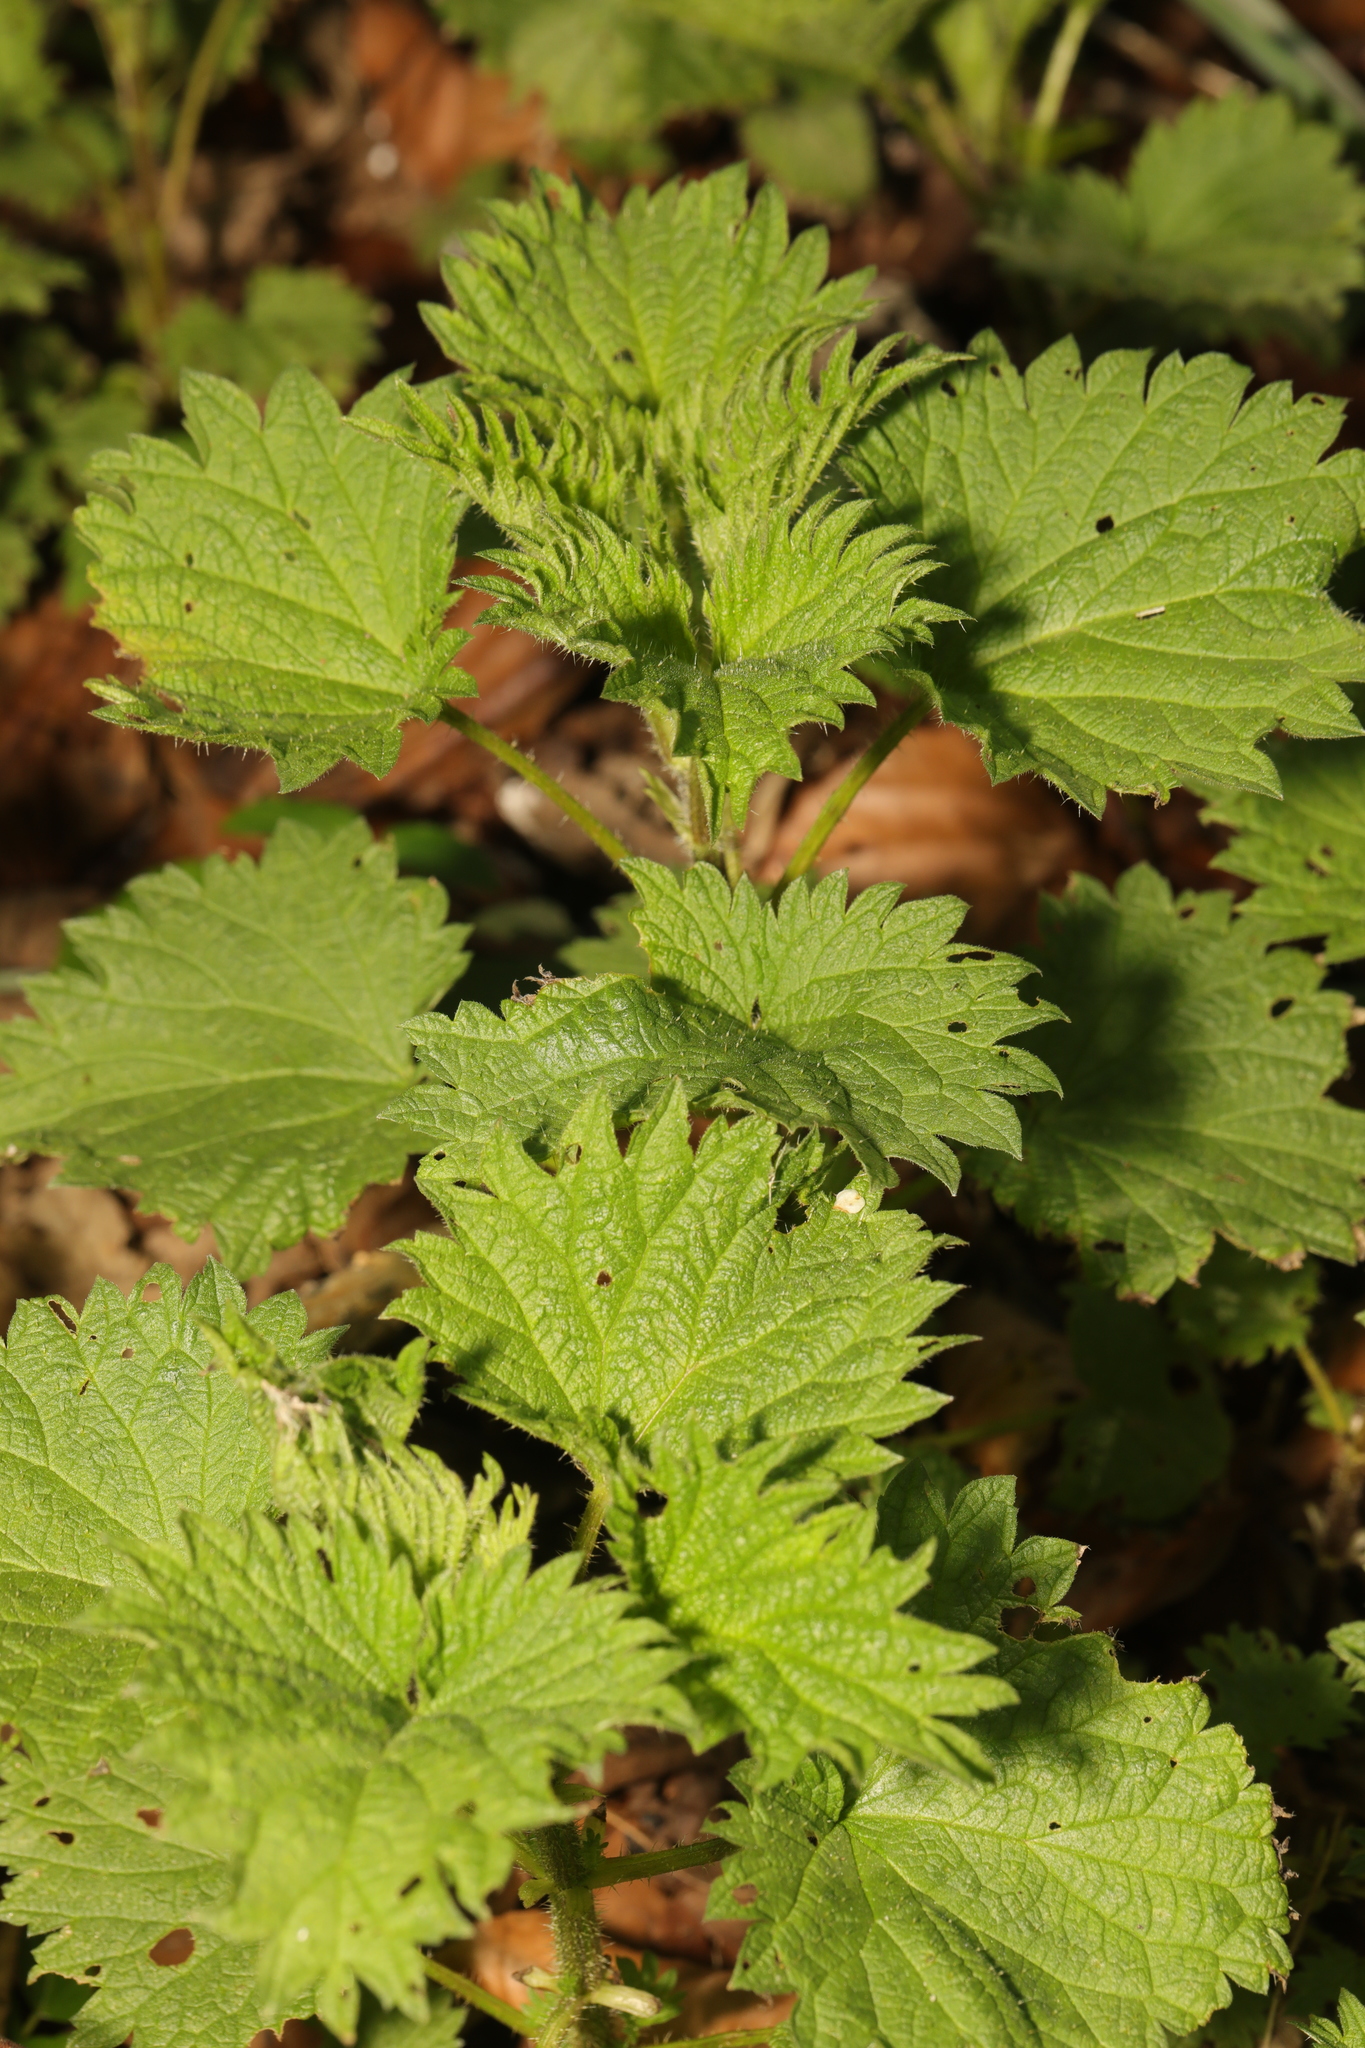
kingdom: Plantae
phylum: Tracheophyta
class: Magnoliopsida
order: Rosales
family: Urticaceae
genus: Urtica
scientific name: Urtica dioica
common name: Common nettle
